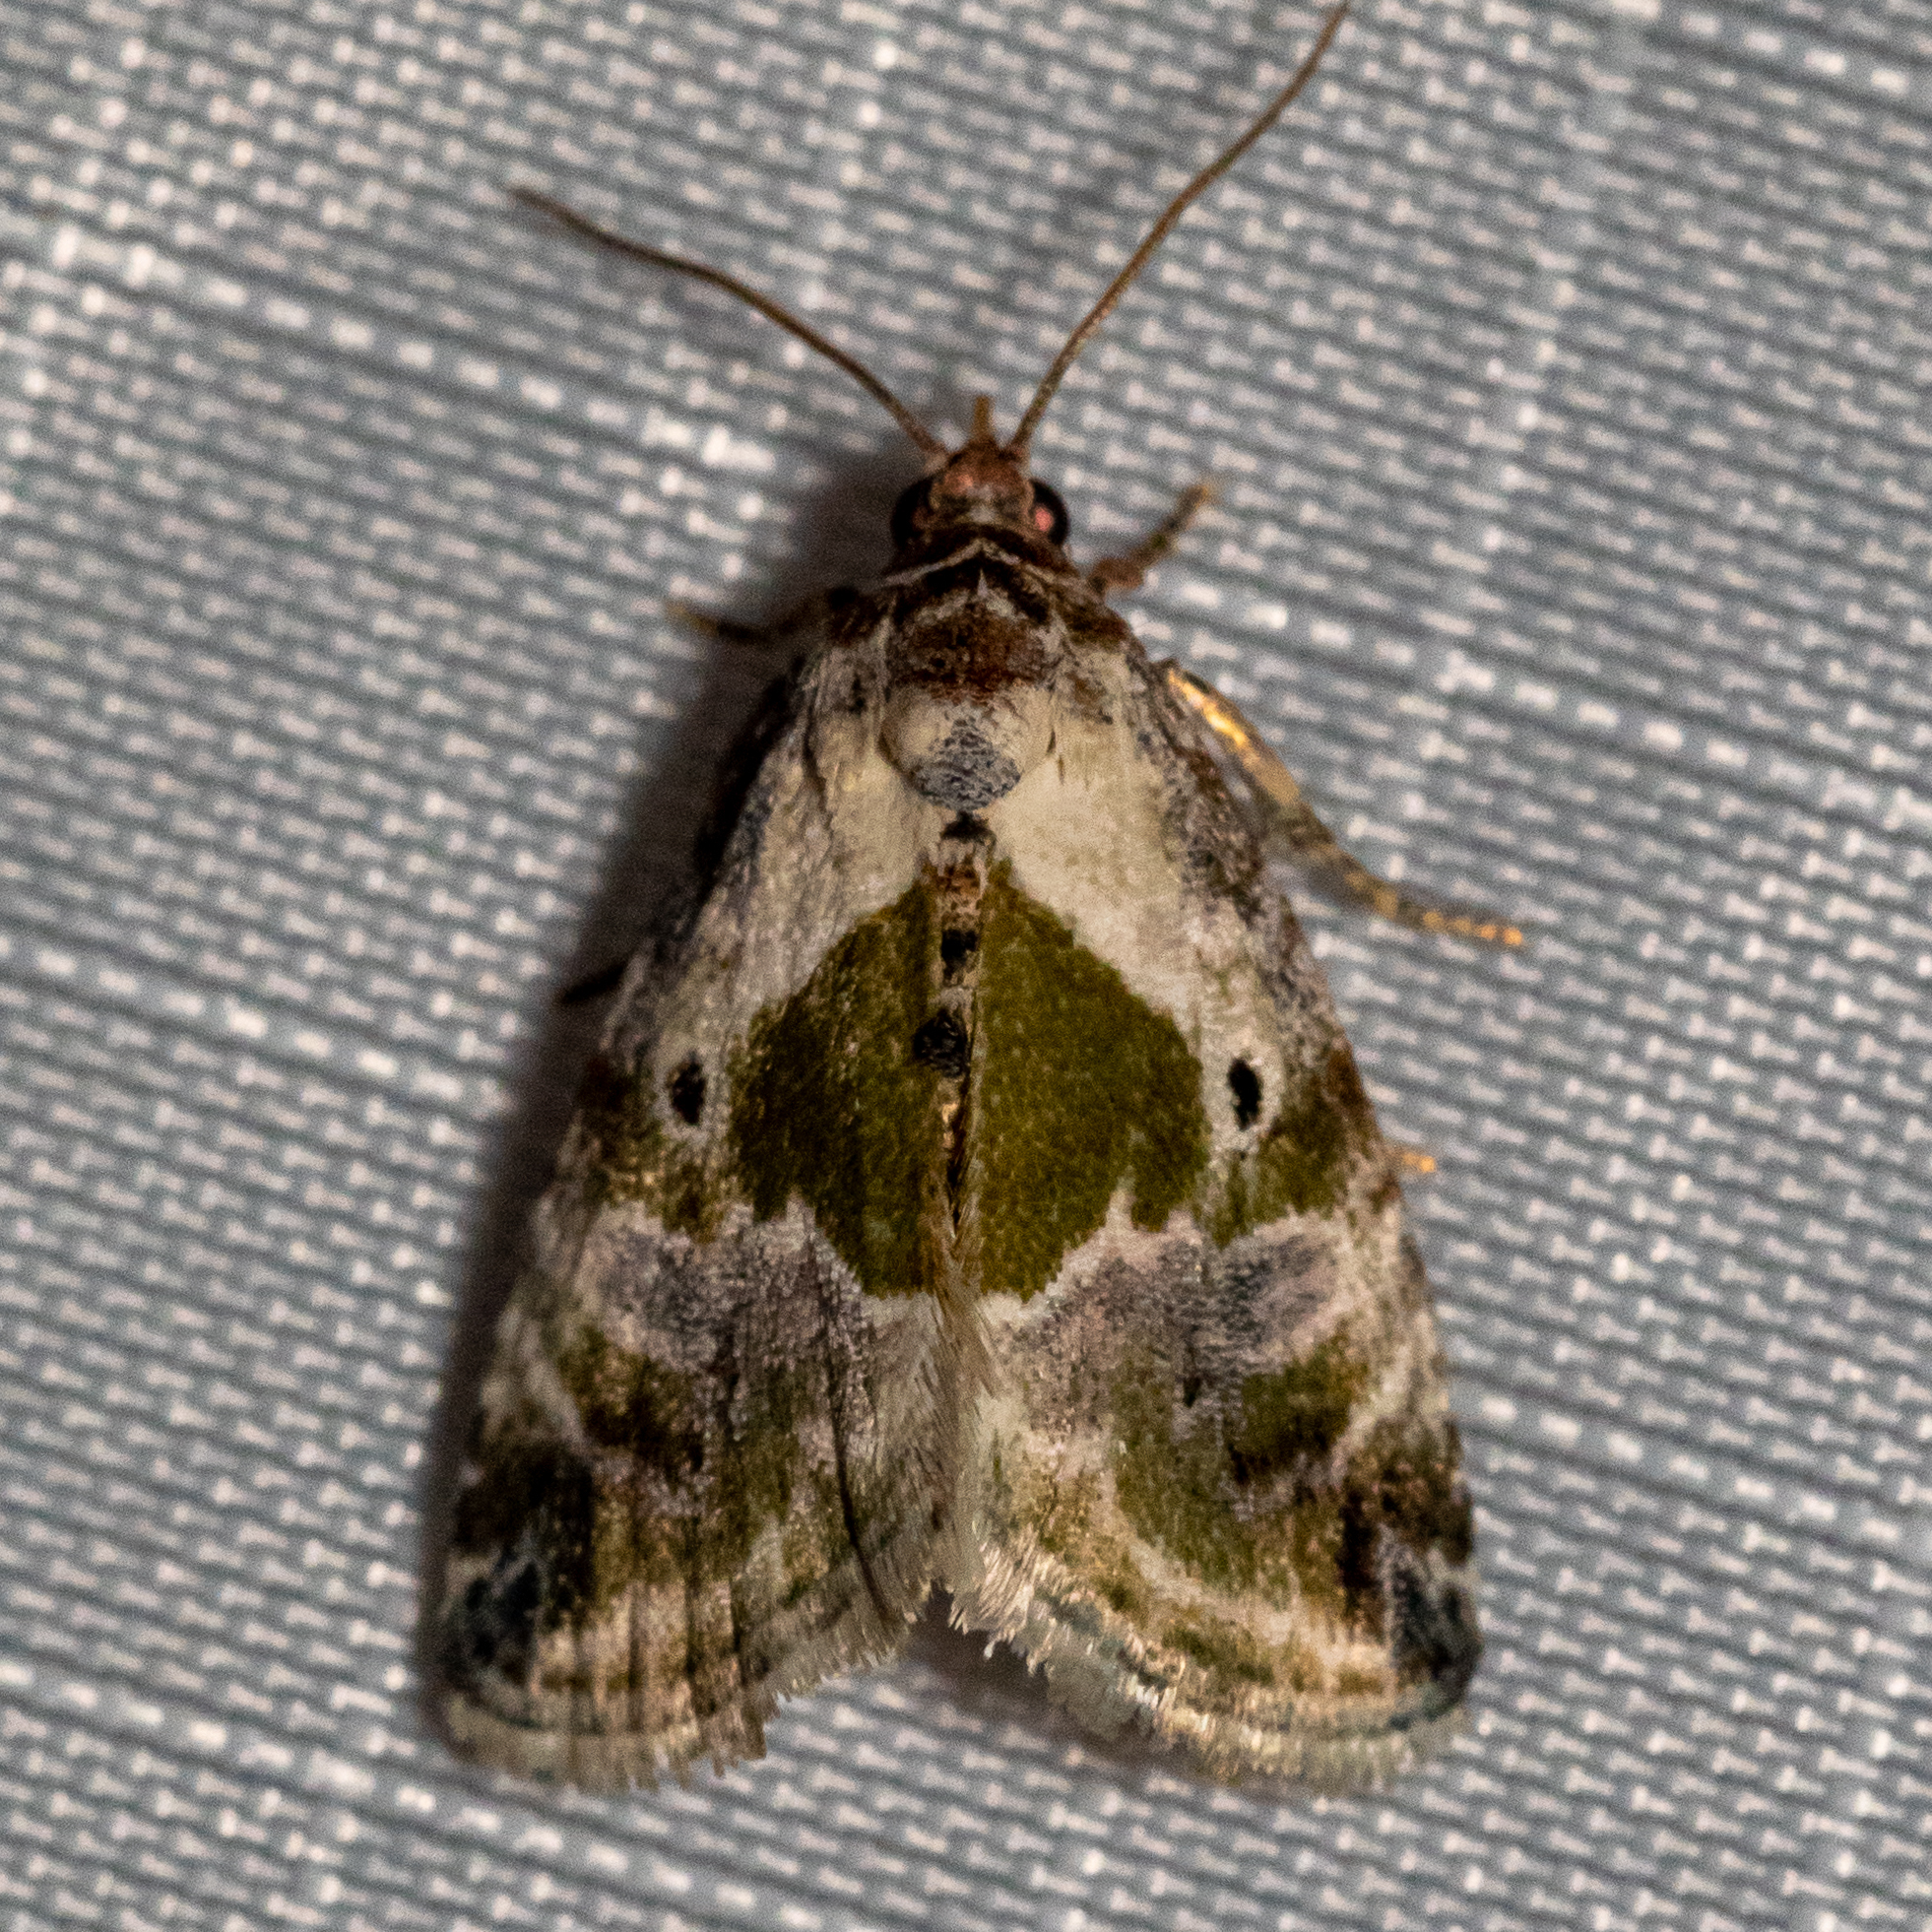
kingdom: Animalia
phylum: Arthropoda
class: Insecta
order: Lepidoptera
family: Noctuidae
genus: Maliattha
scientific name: Maliattha synochitis
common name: Black-dotted glyph
